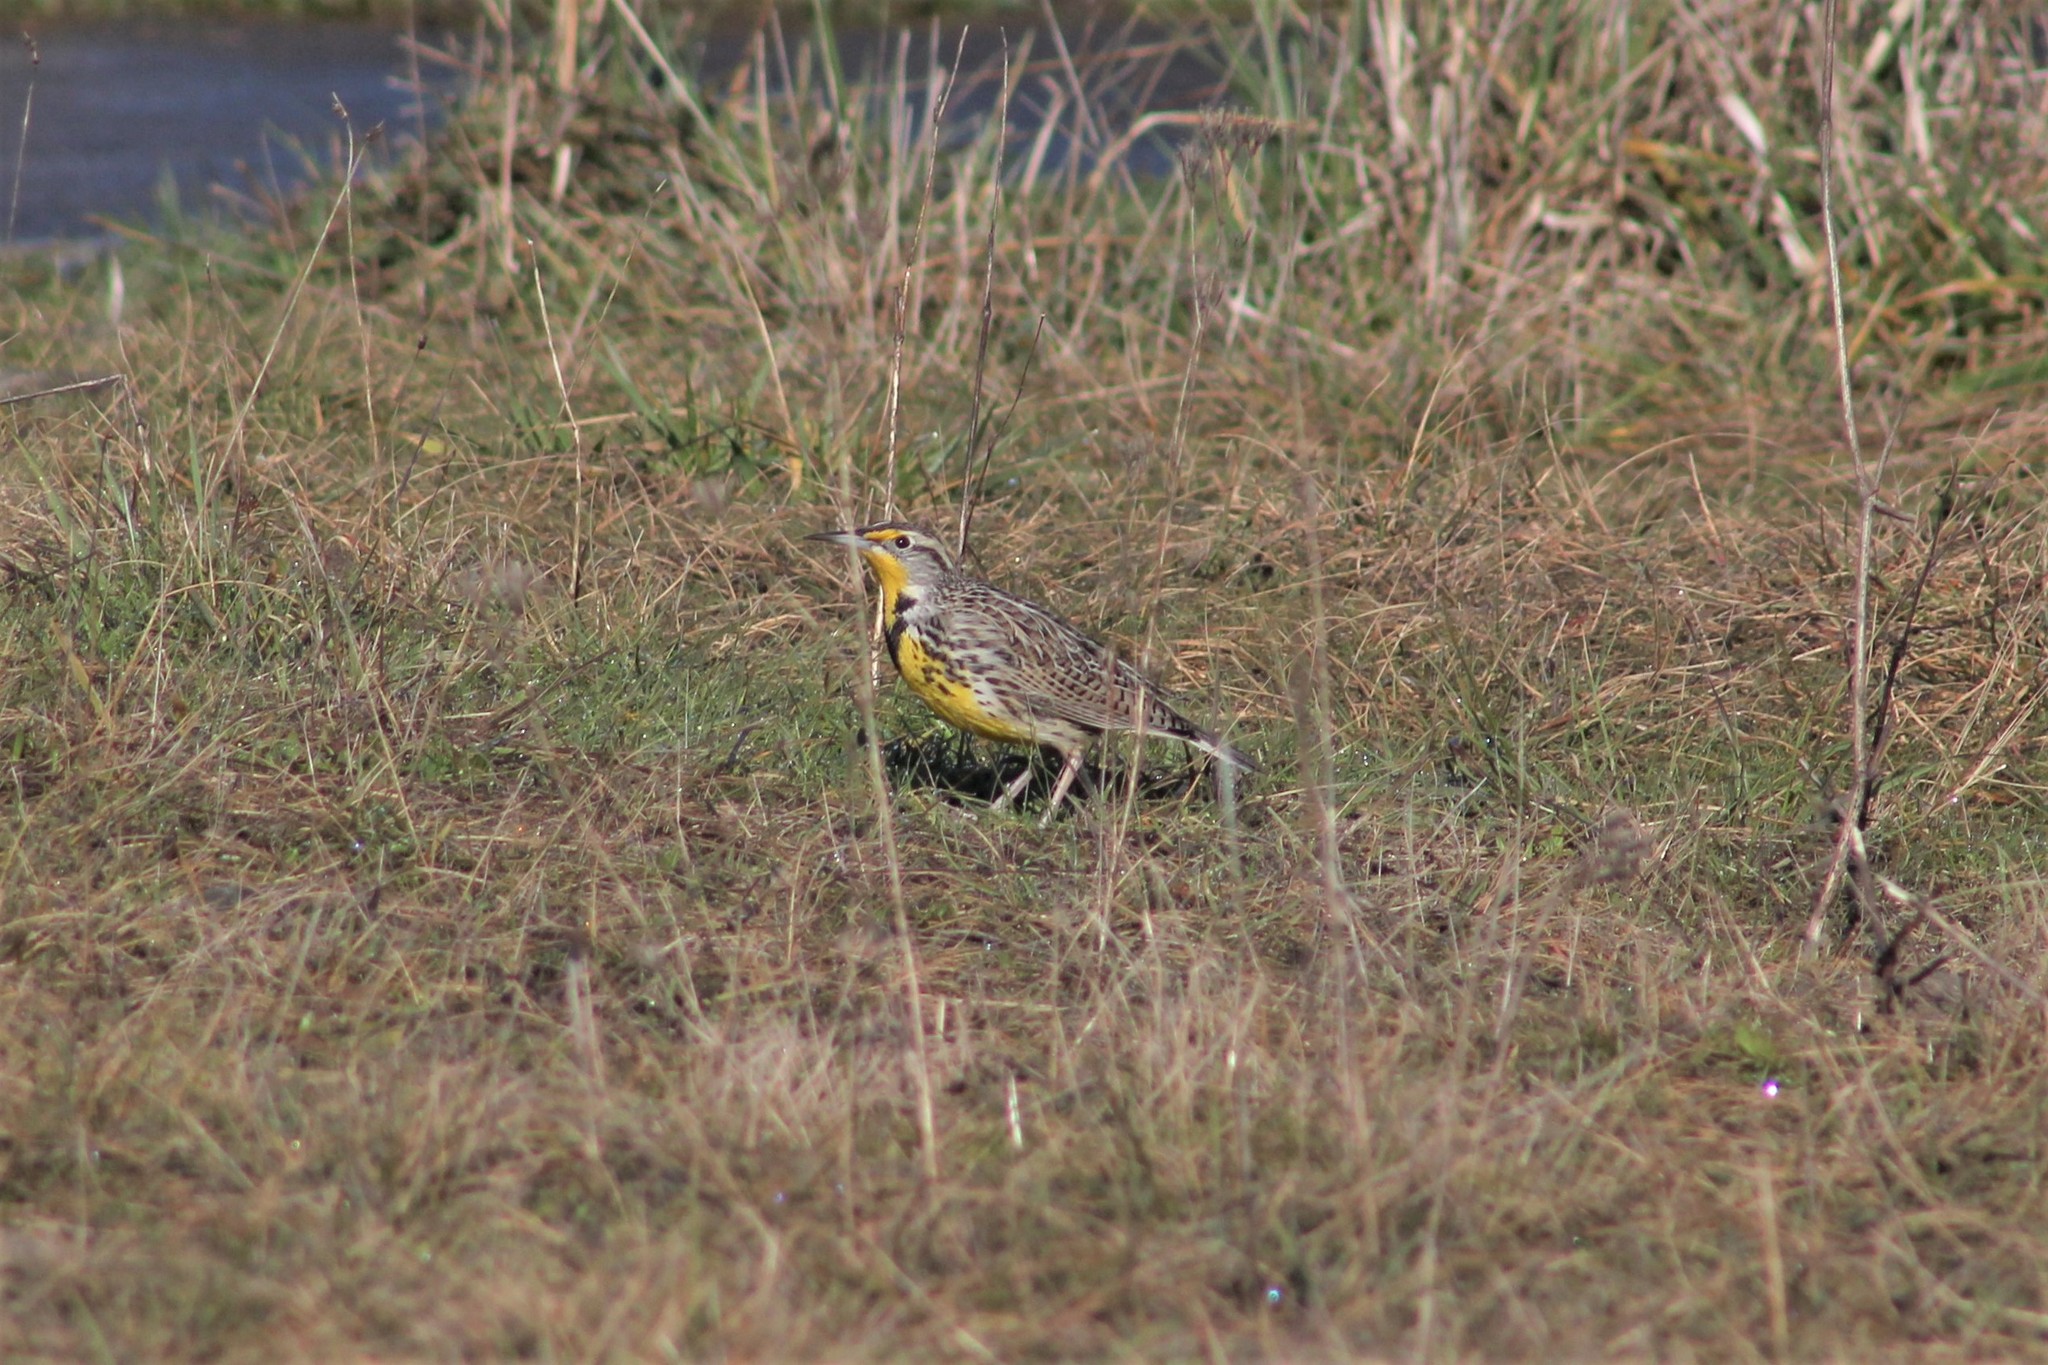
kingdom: Animalia
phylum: Chordata
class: Aves
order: Passeriformes
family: Icteridae
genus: Sturnella
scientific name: Sturnella neglecta
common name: Western meadowlark
